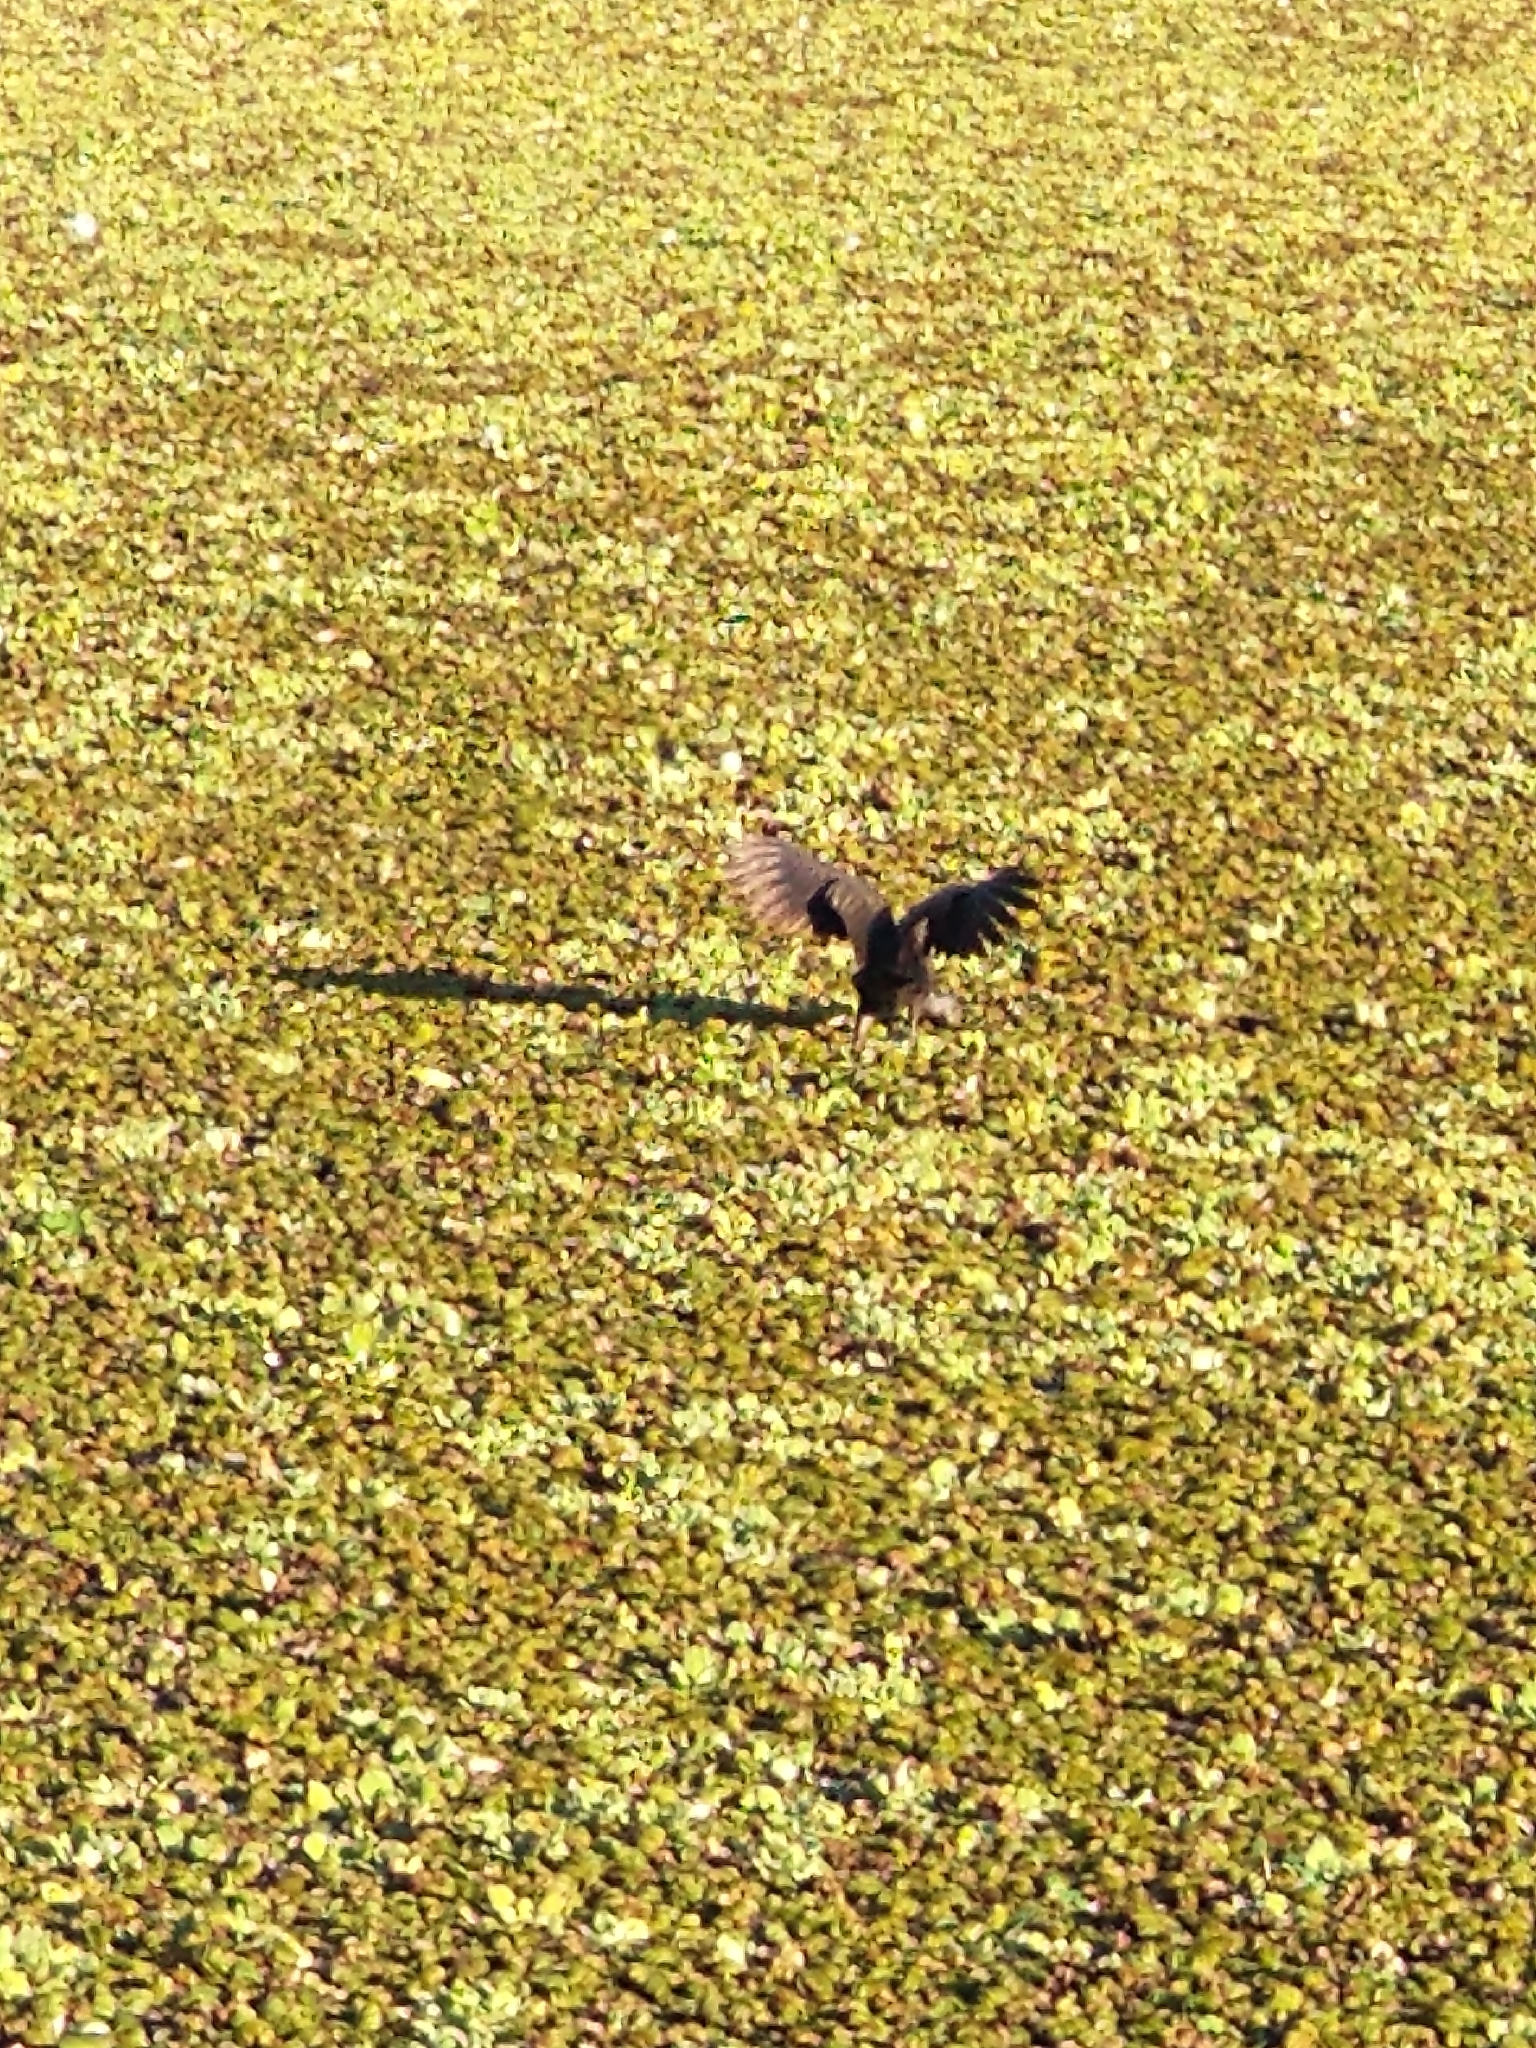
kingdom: Animalia
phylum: Chordata
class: Aves
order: Gruiformes
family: Aramidae
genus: Aramus
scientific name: Aramus guarauna
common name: Limpkin
